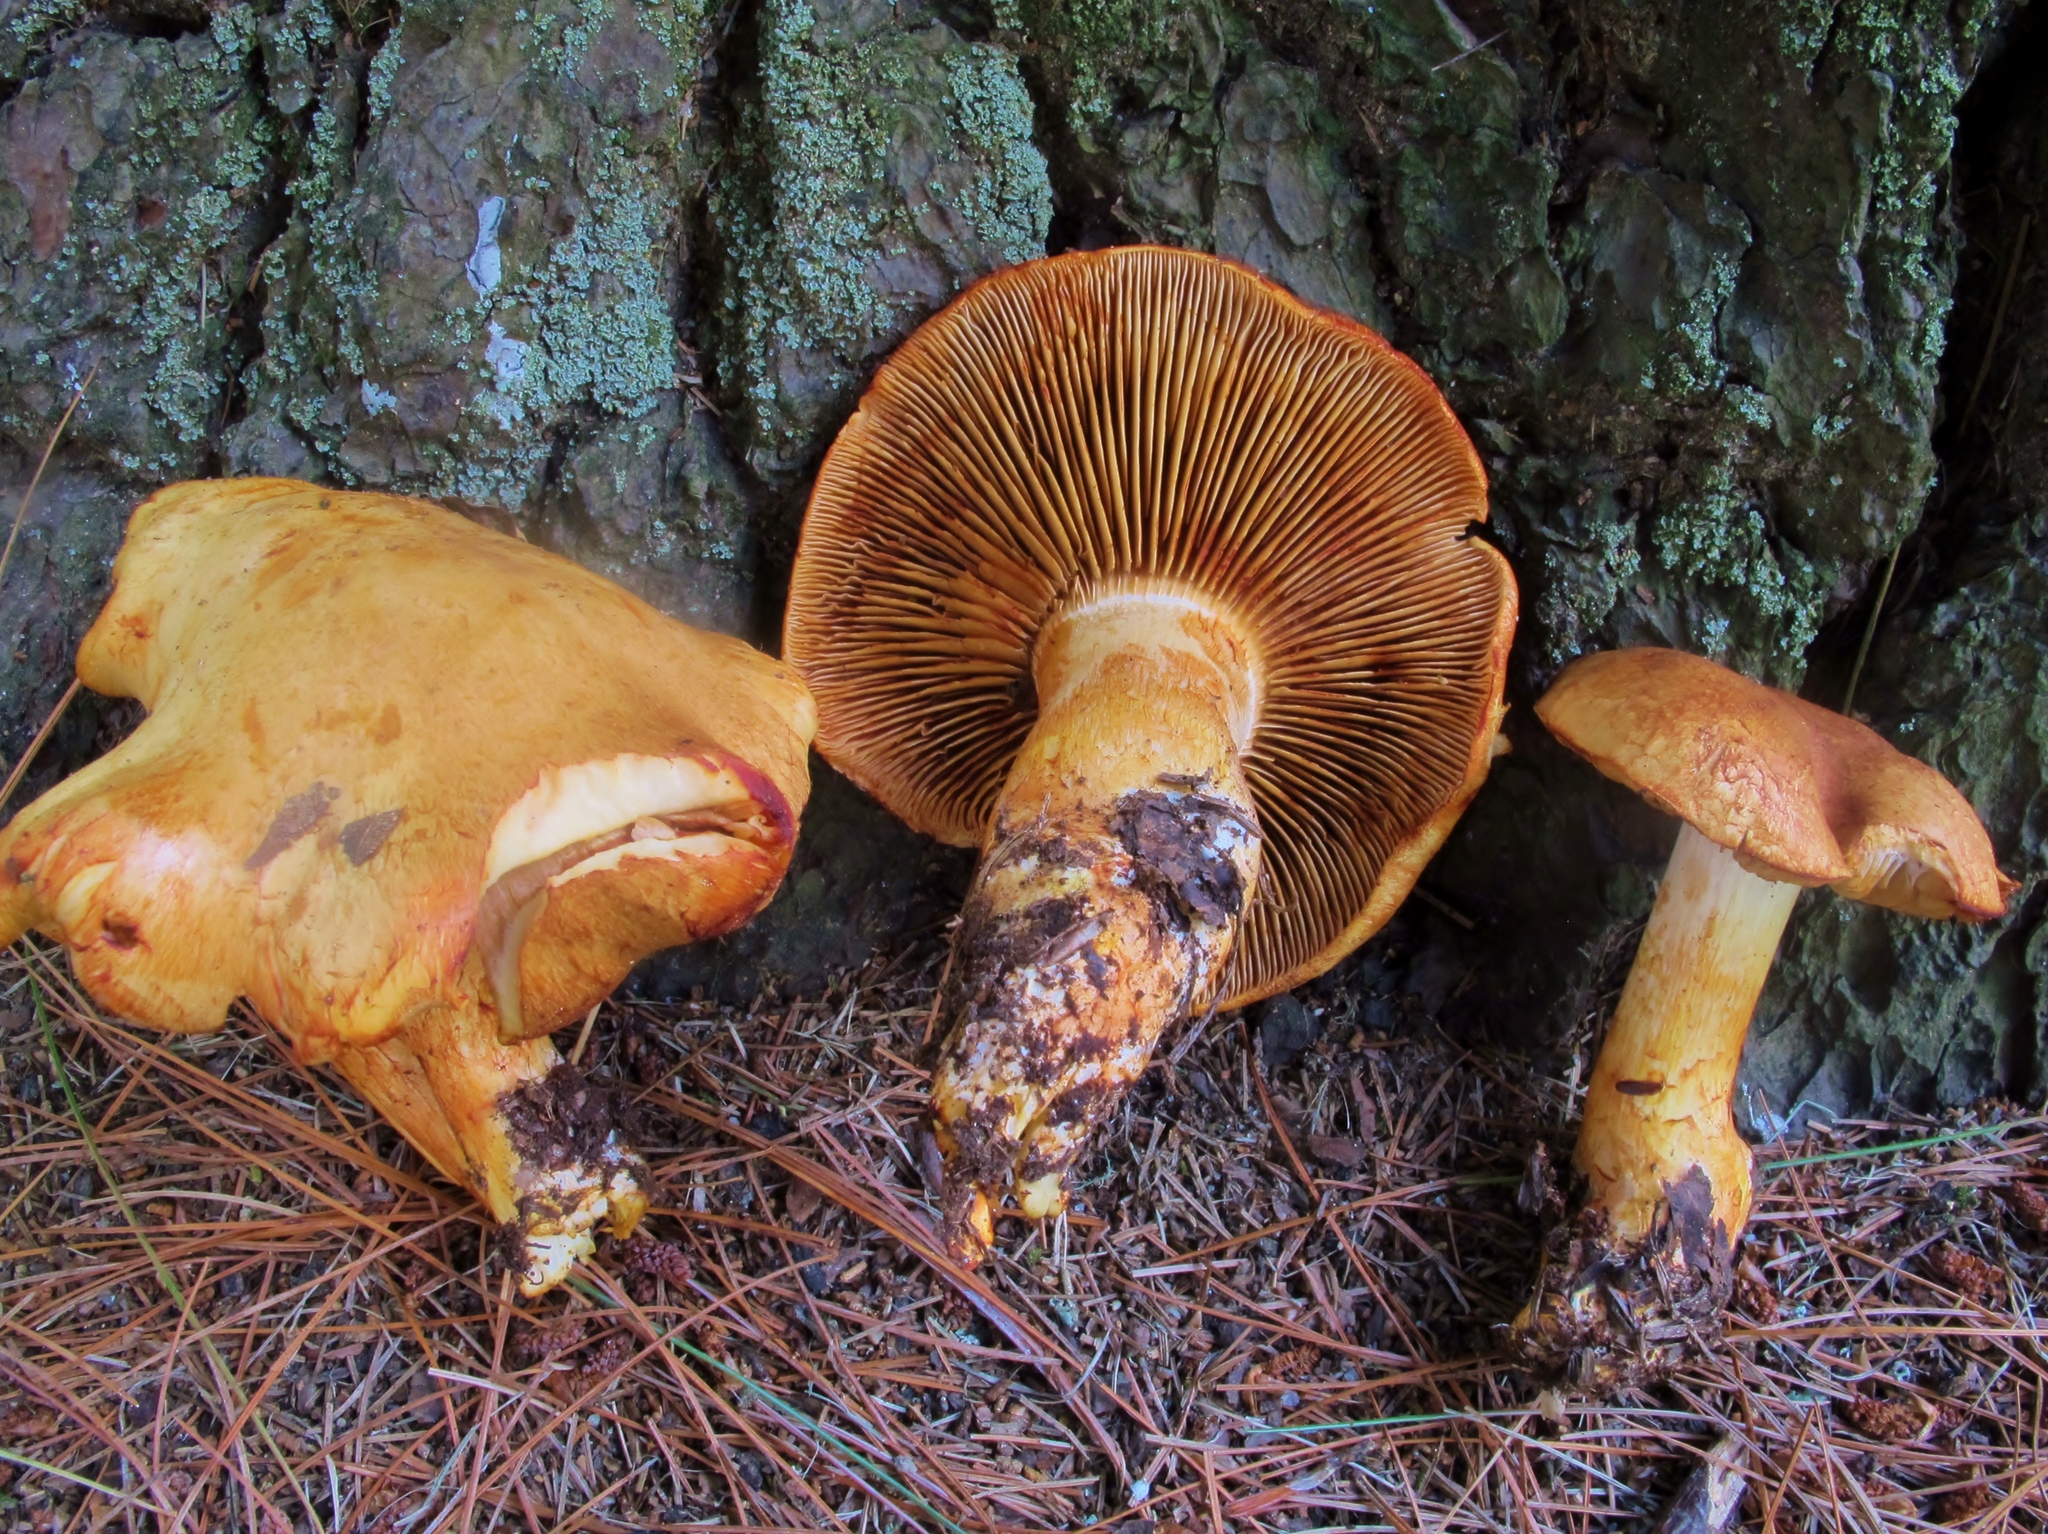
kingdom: Fungi
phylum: Basidiomycota
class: Agaricomycetes
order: Agaricales
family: Cortinariaceae
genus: Cystinarius
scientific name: Cystinarius rubicundulus
